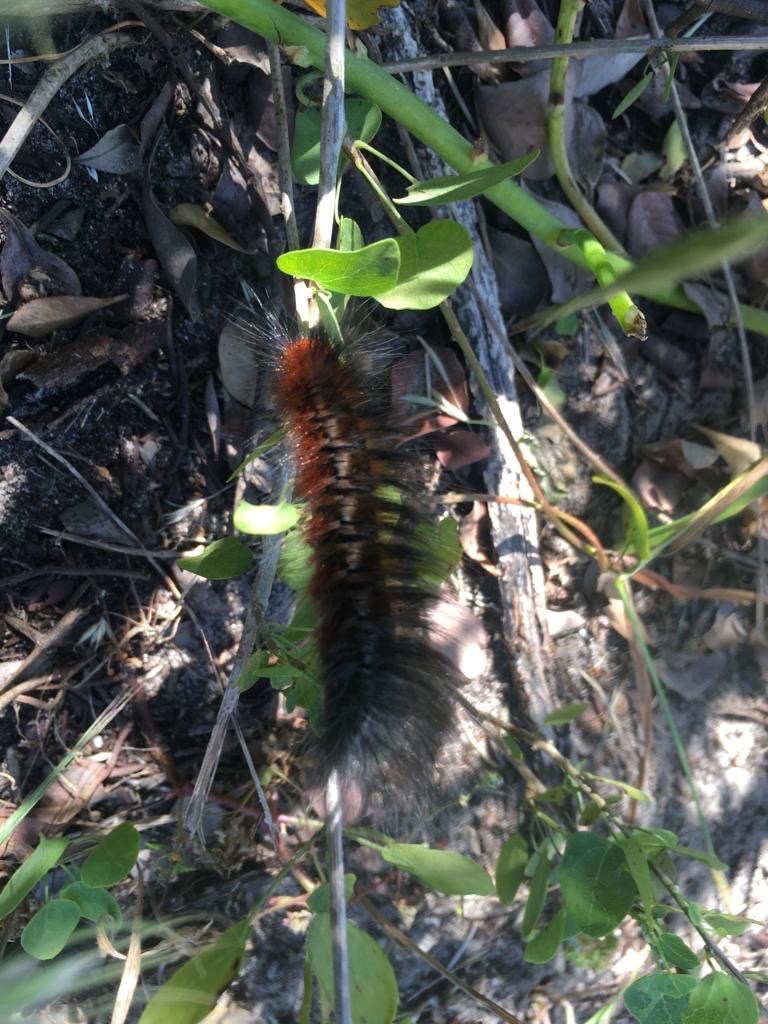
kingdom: Animalia
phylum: Arthropoda
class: Insecta
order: Lepidoptera
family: Lasiocampidae
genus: Mesocelis
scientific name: Mesocelis monticola
